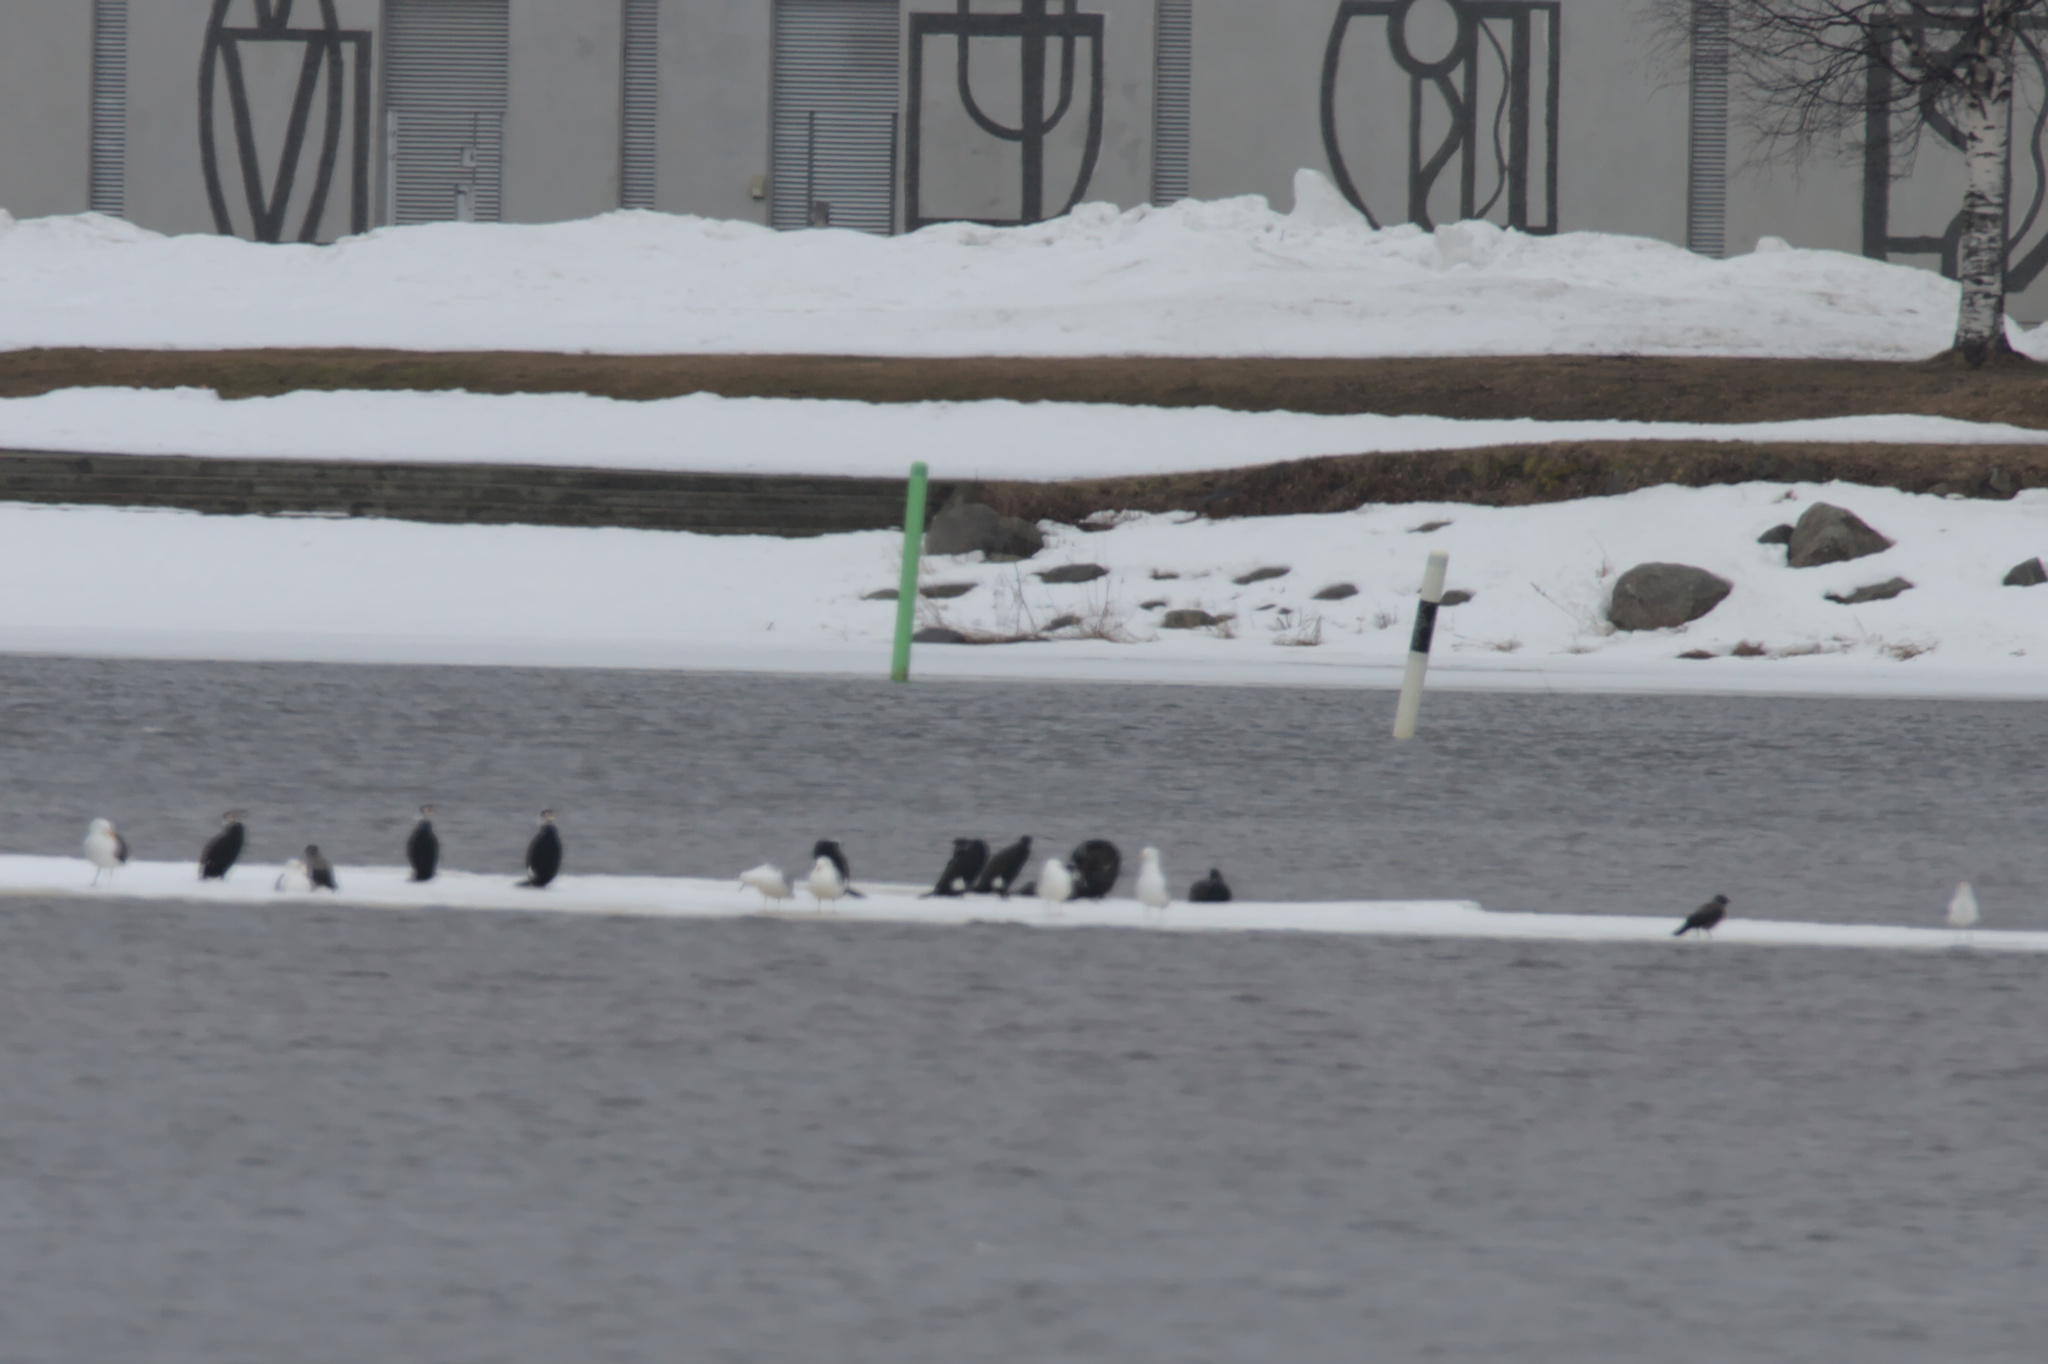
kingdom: Animalia
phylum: Chordata
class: Aves
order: Suliformes
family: Phalacrocoracidae
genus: Phalacrocorax
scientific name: Phalacrocorax carbo
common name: Great cormorant
